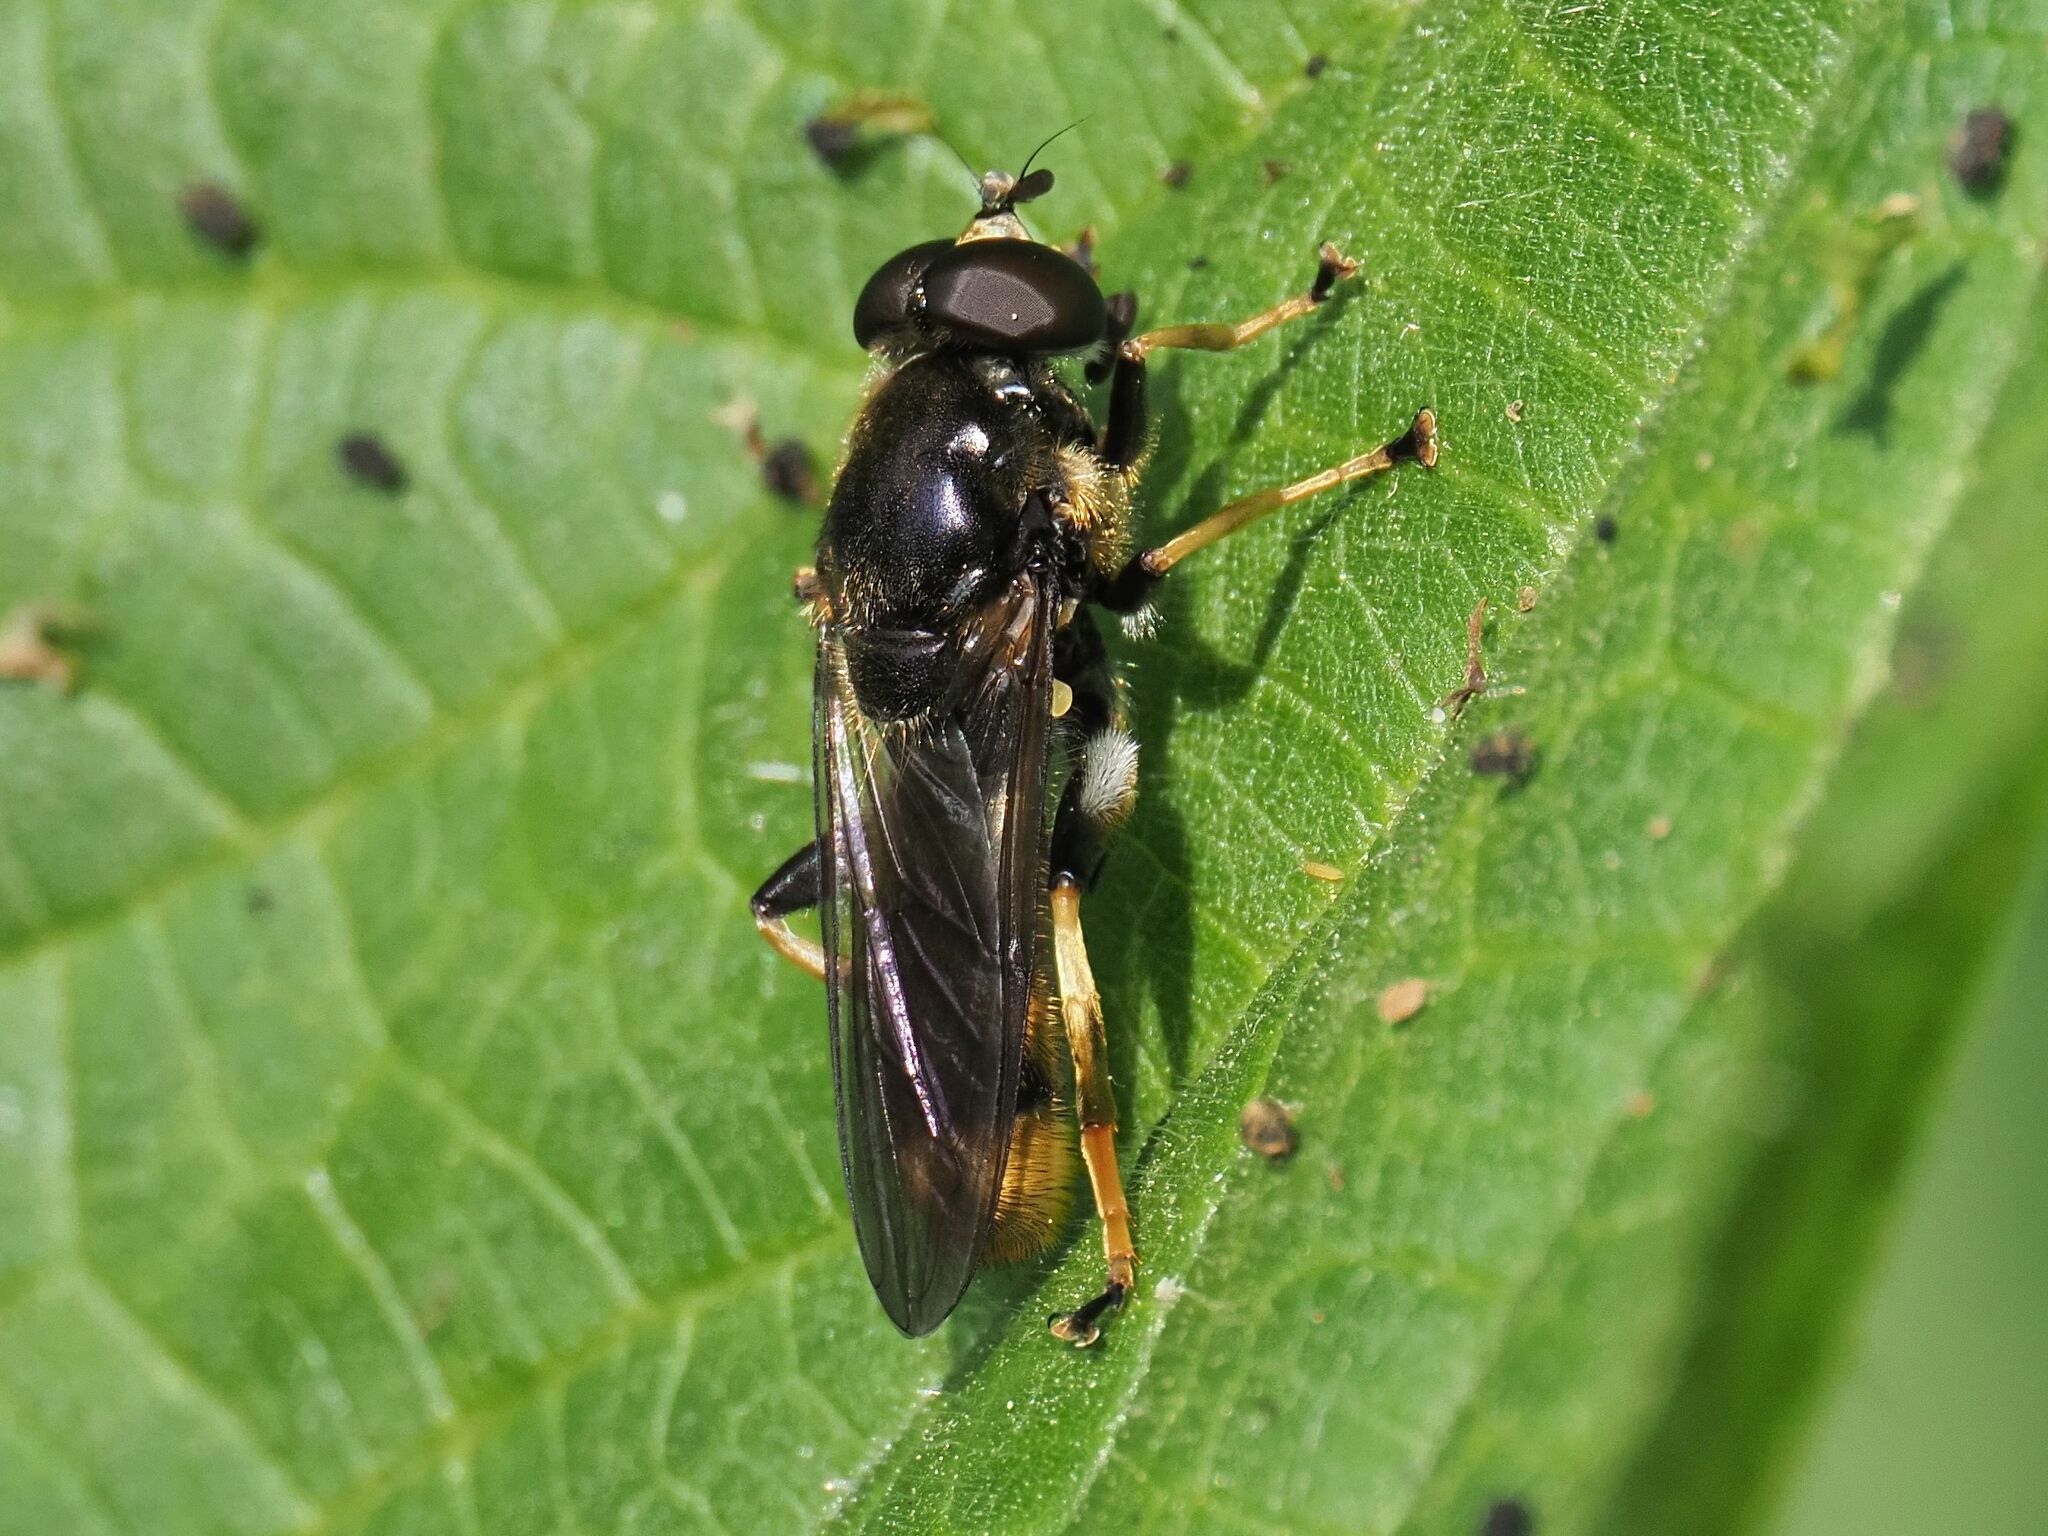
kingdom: Animalia
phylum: Arthropoda
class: Insecta
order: Diptera
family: Syrphidae
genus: Xylota
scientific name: Xylota sylvarum
